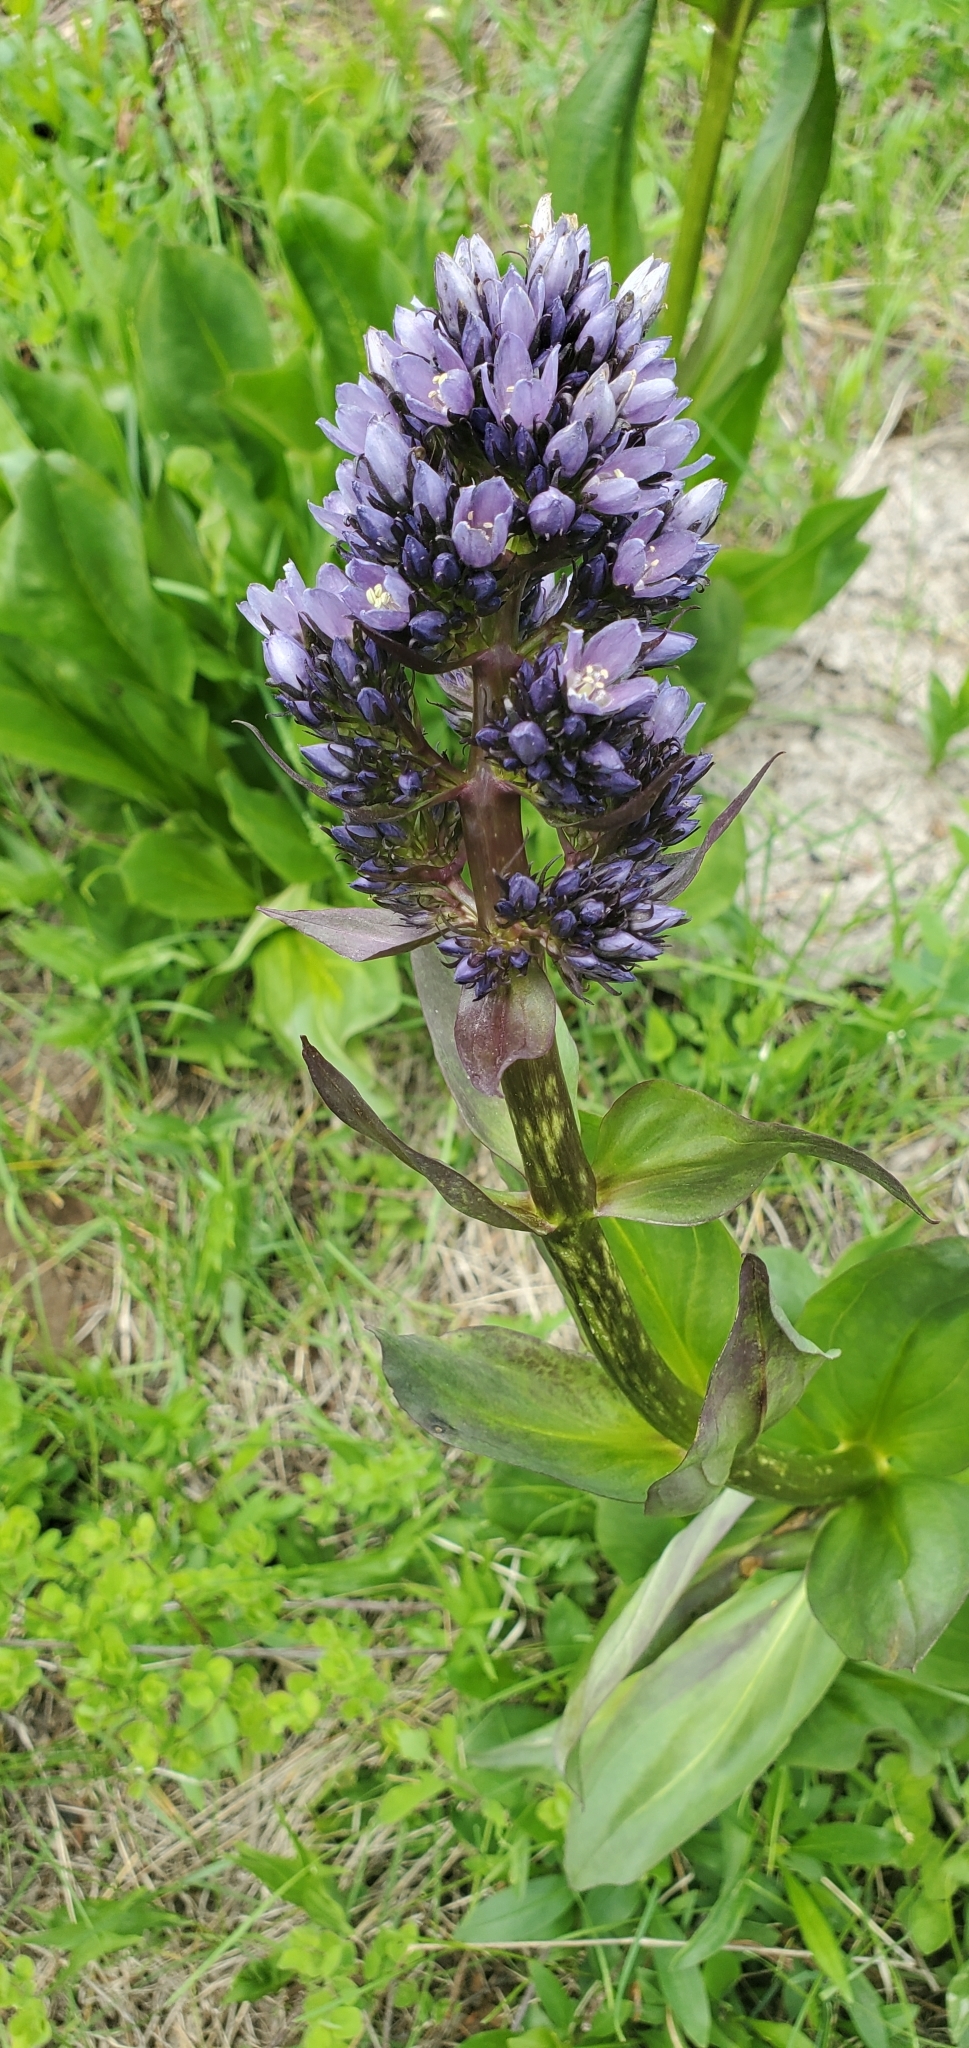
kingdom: Plantae
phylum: Tracheophyta
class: Magnoliopsida
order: Gentianales
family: Gentianaceae
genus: Frasera
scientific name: Frasera fastigiata
